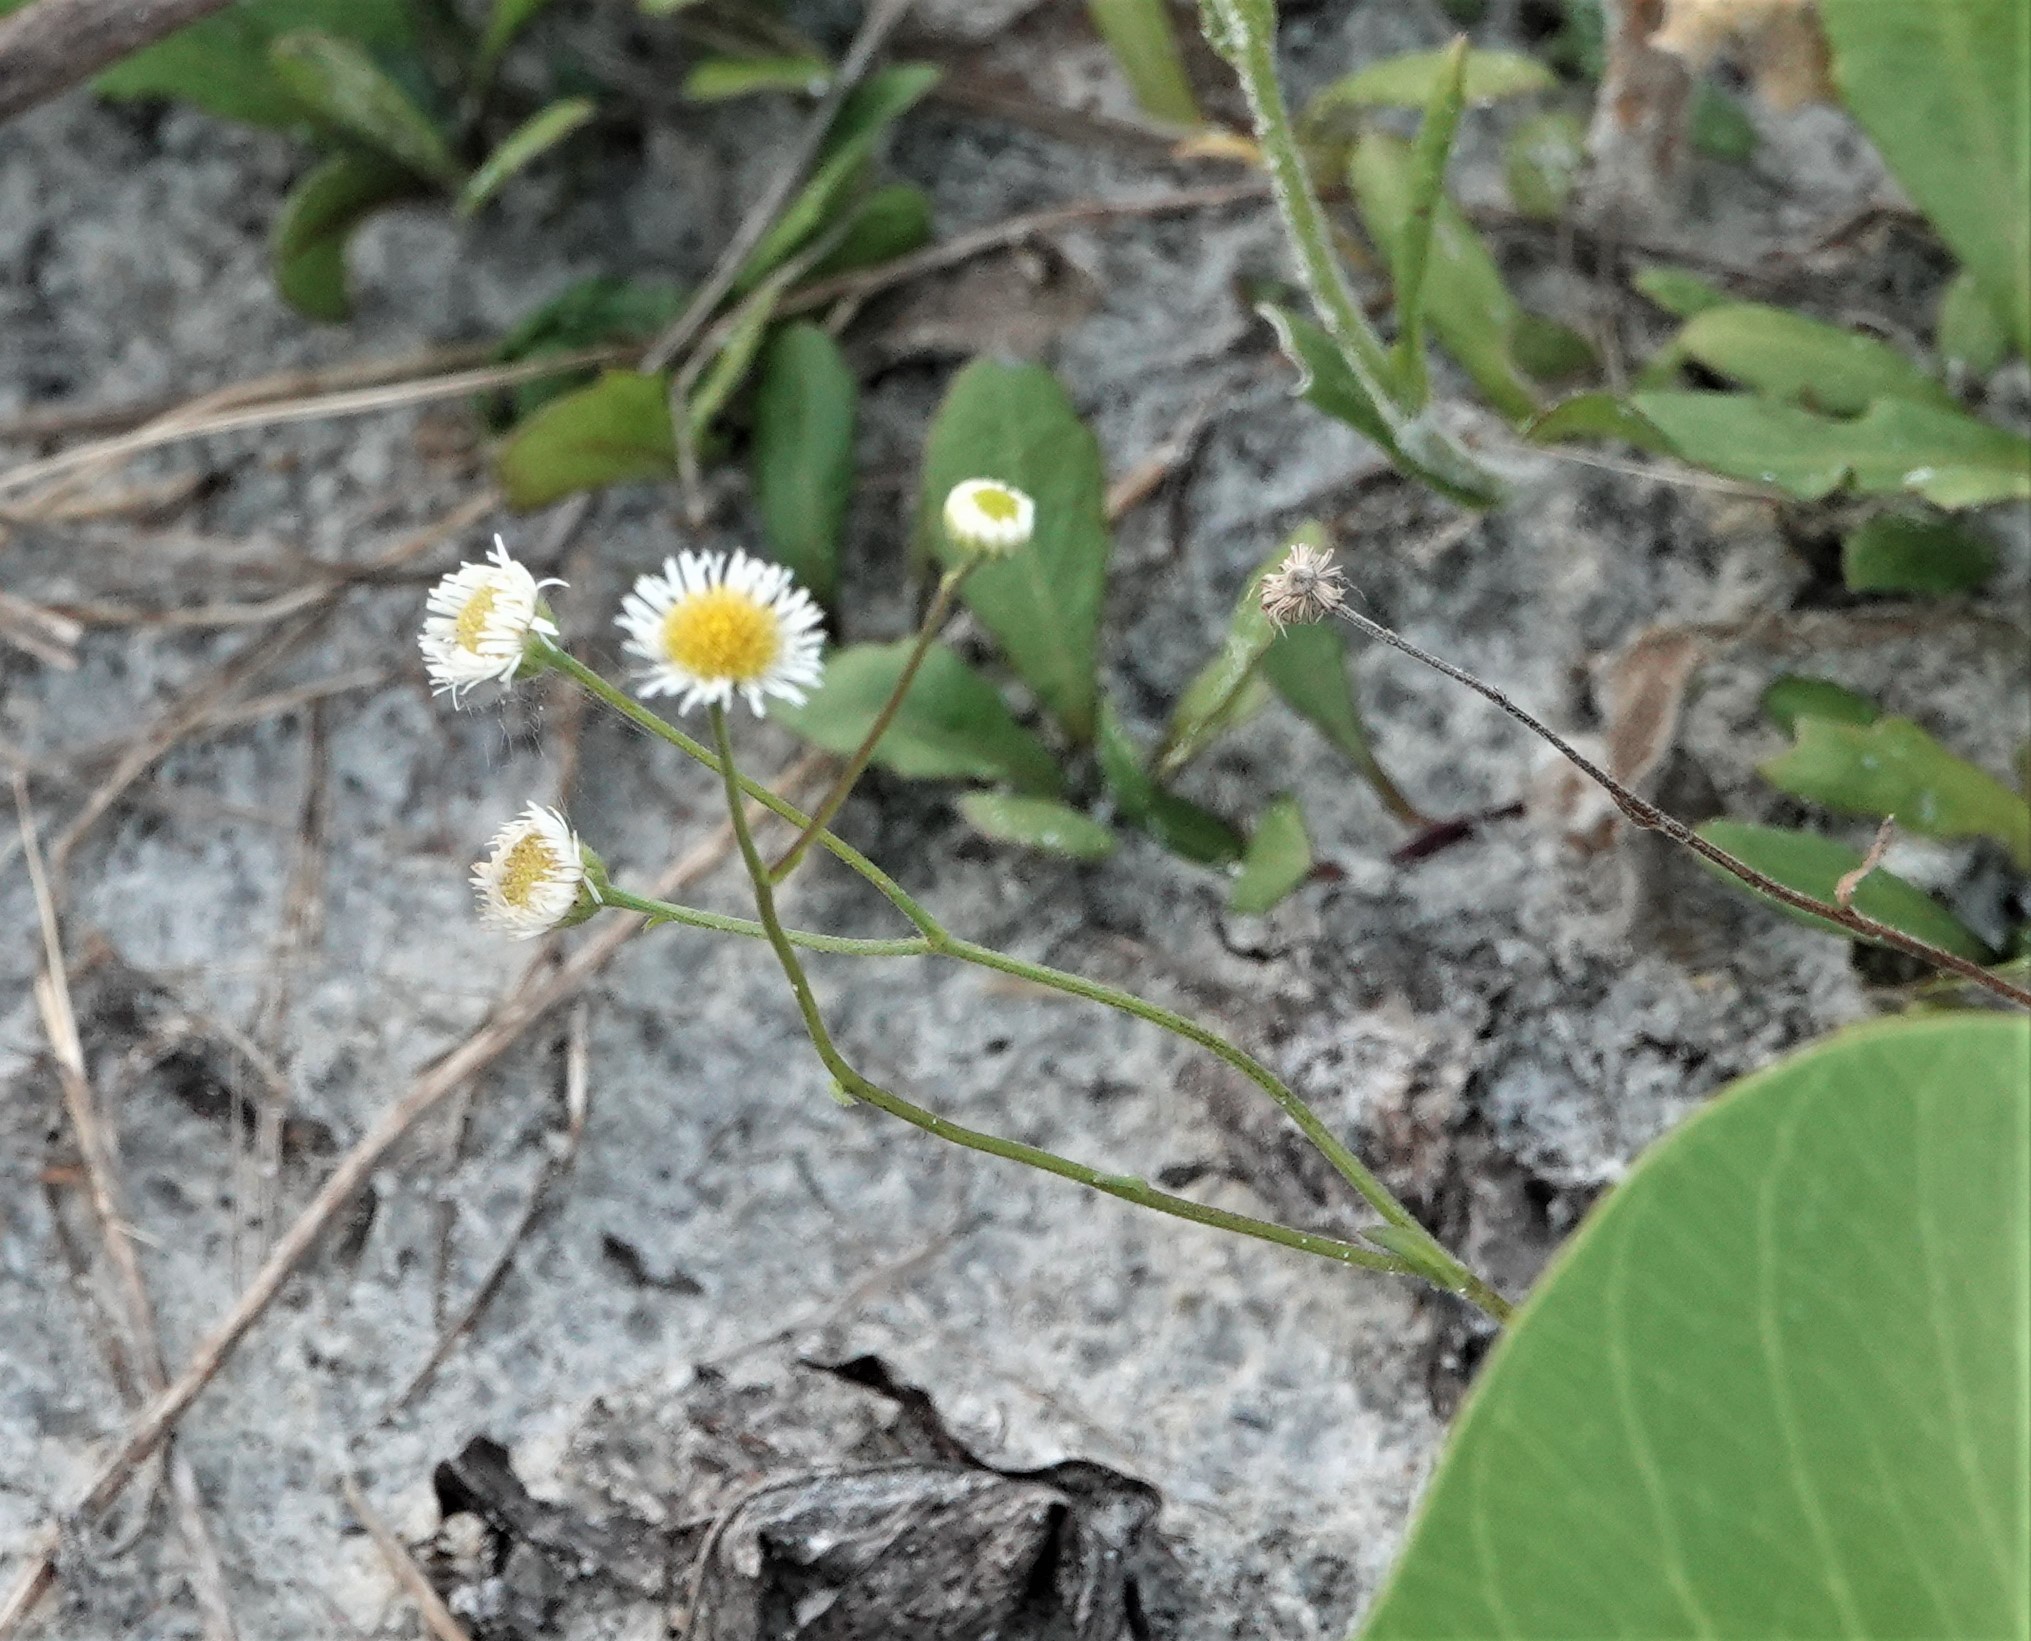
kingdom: Plantae
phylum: Tracheophyta
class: Magnoliopsida
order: Asterales
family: Asteraceae
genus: Erigeron
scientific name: Erigeron quercifolius
